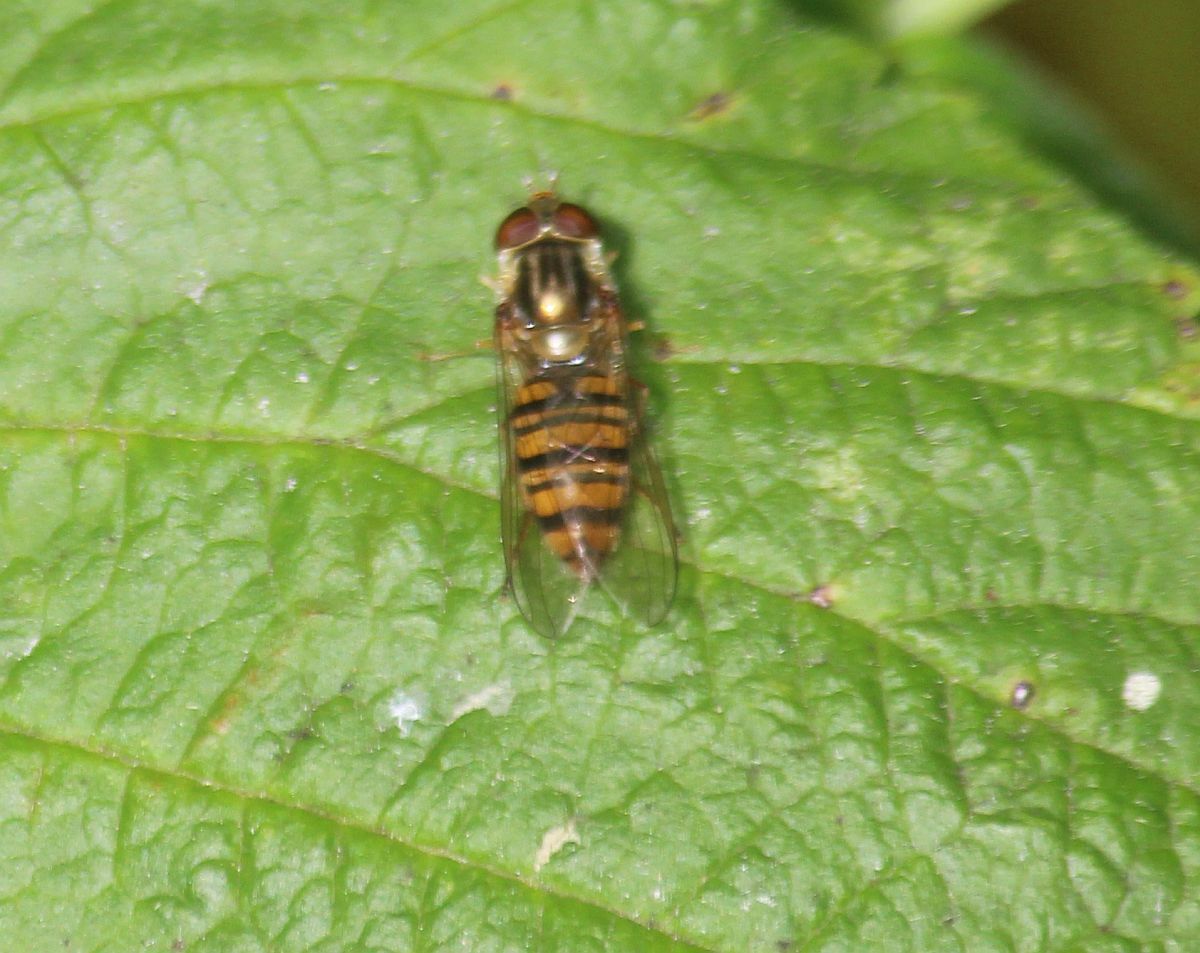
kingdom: Animalia
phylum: Arthropoda
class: Insecta
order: Diptera
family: Syrphidae
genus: Episyrphus
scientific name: Episyrphus balteatus
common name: Marmalade hoverfly
